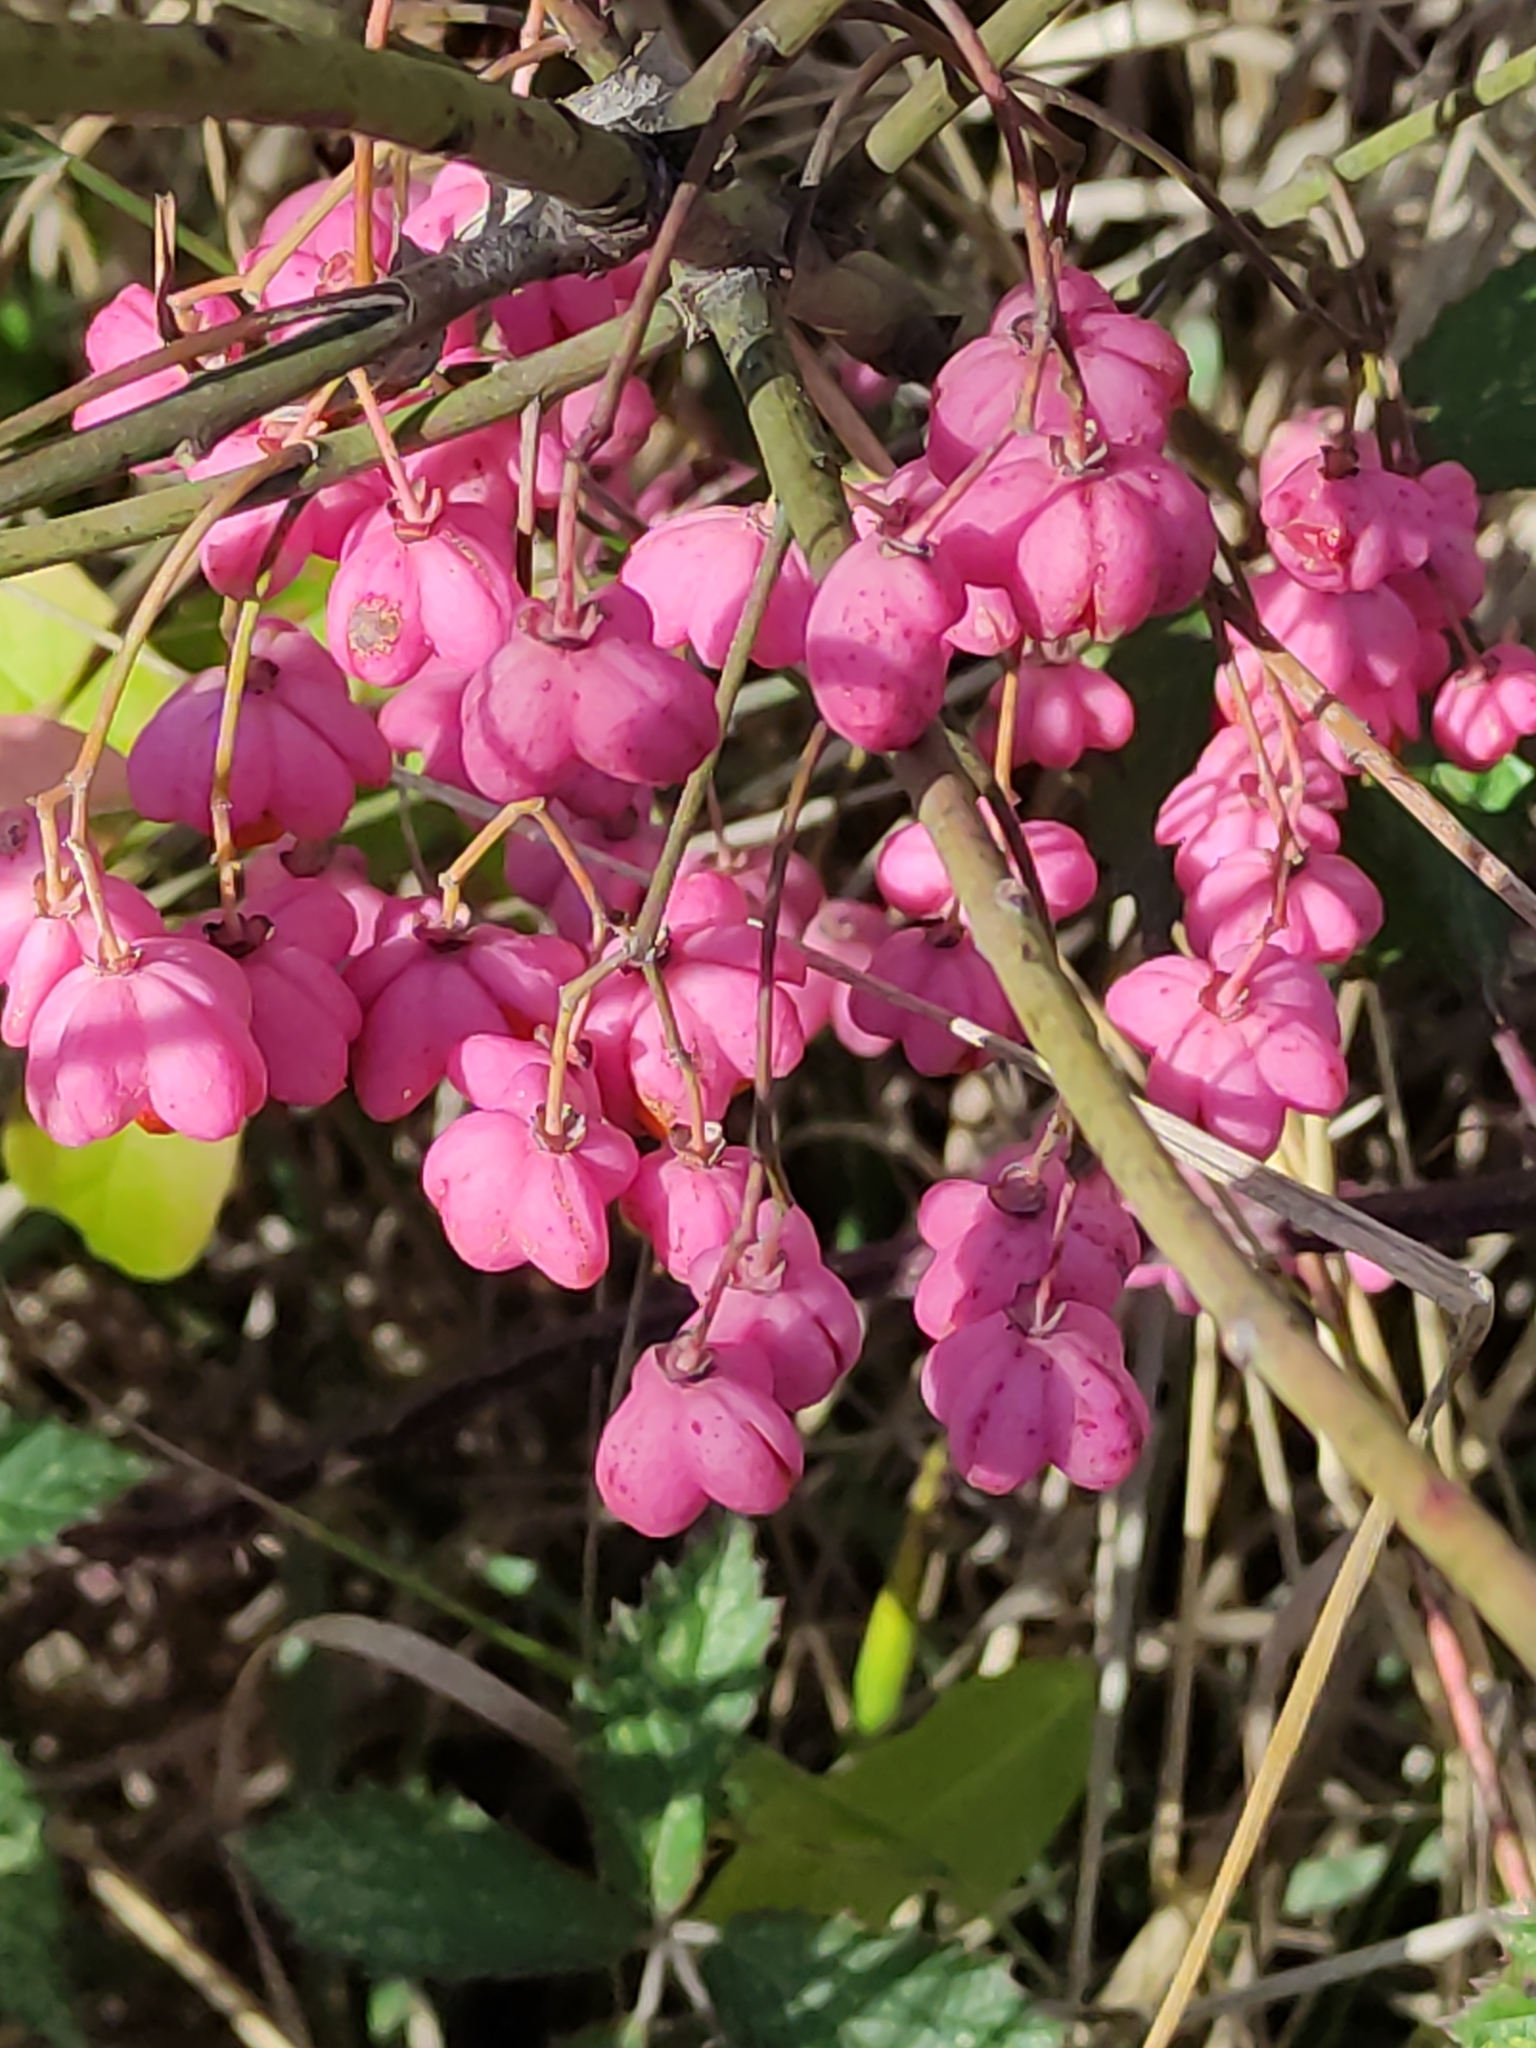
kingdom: Plantae
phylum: Tracheophyta
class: Magnoliopsida
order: Celastrales
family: Celastraceae
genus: Euonymus
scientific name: Euonymus europaeus
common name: Spindle
